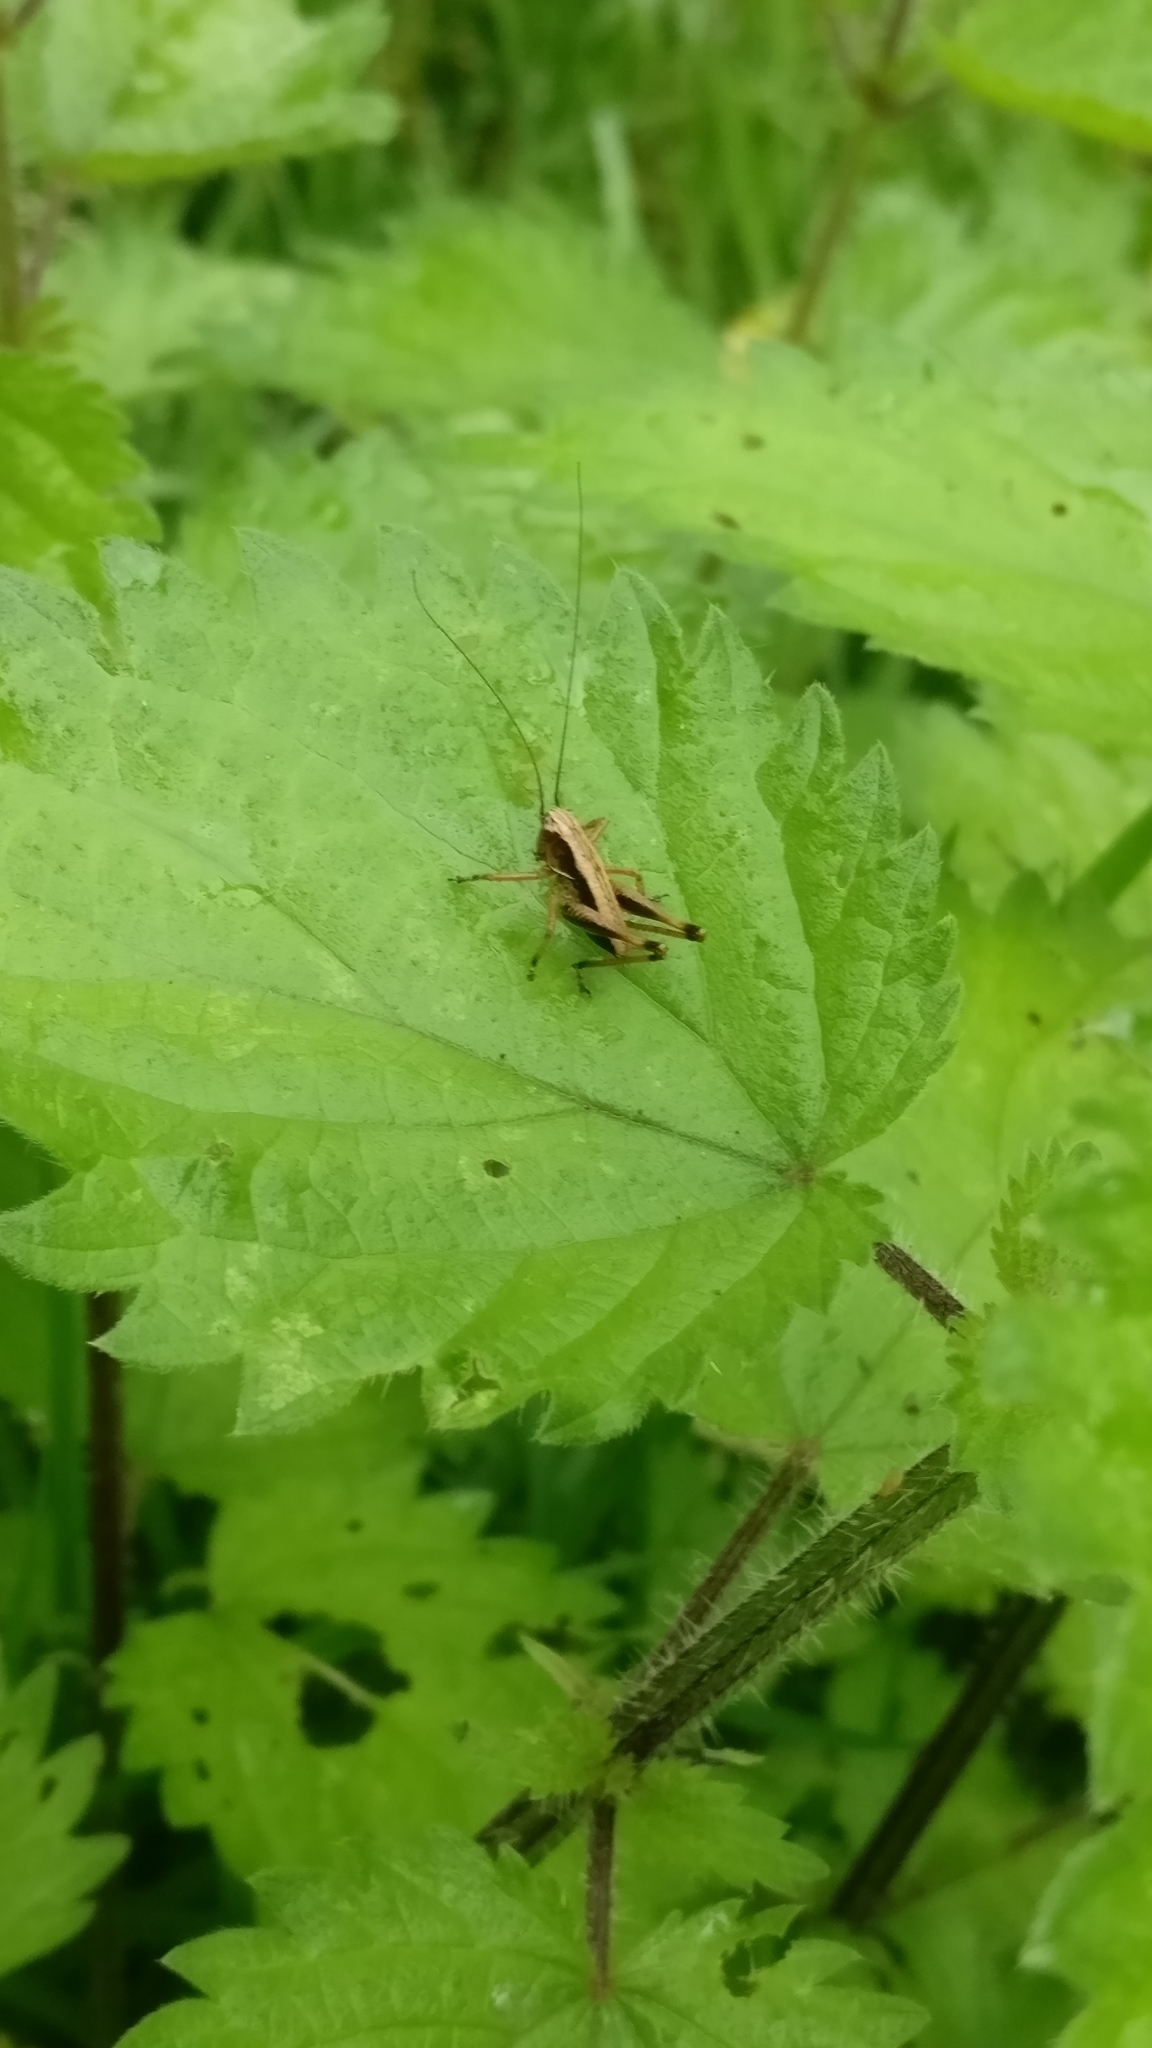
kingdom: Animalia
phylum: Arthropoda
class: Insecta
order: Orthoptera
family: Tettigoniidae
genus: Pholidoptera
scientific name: Pholidoptera griseoaptera
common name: Dark bush-cricket
